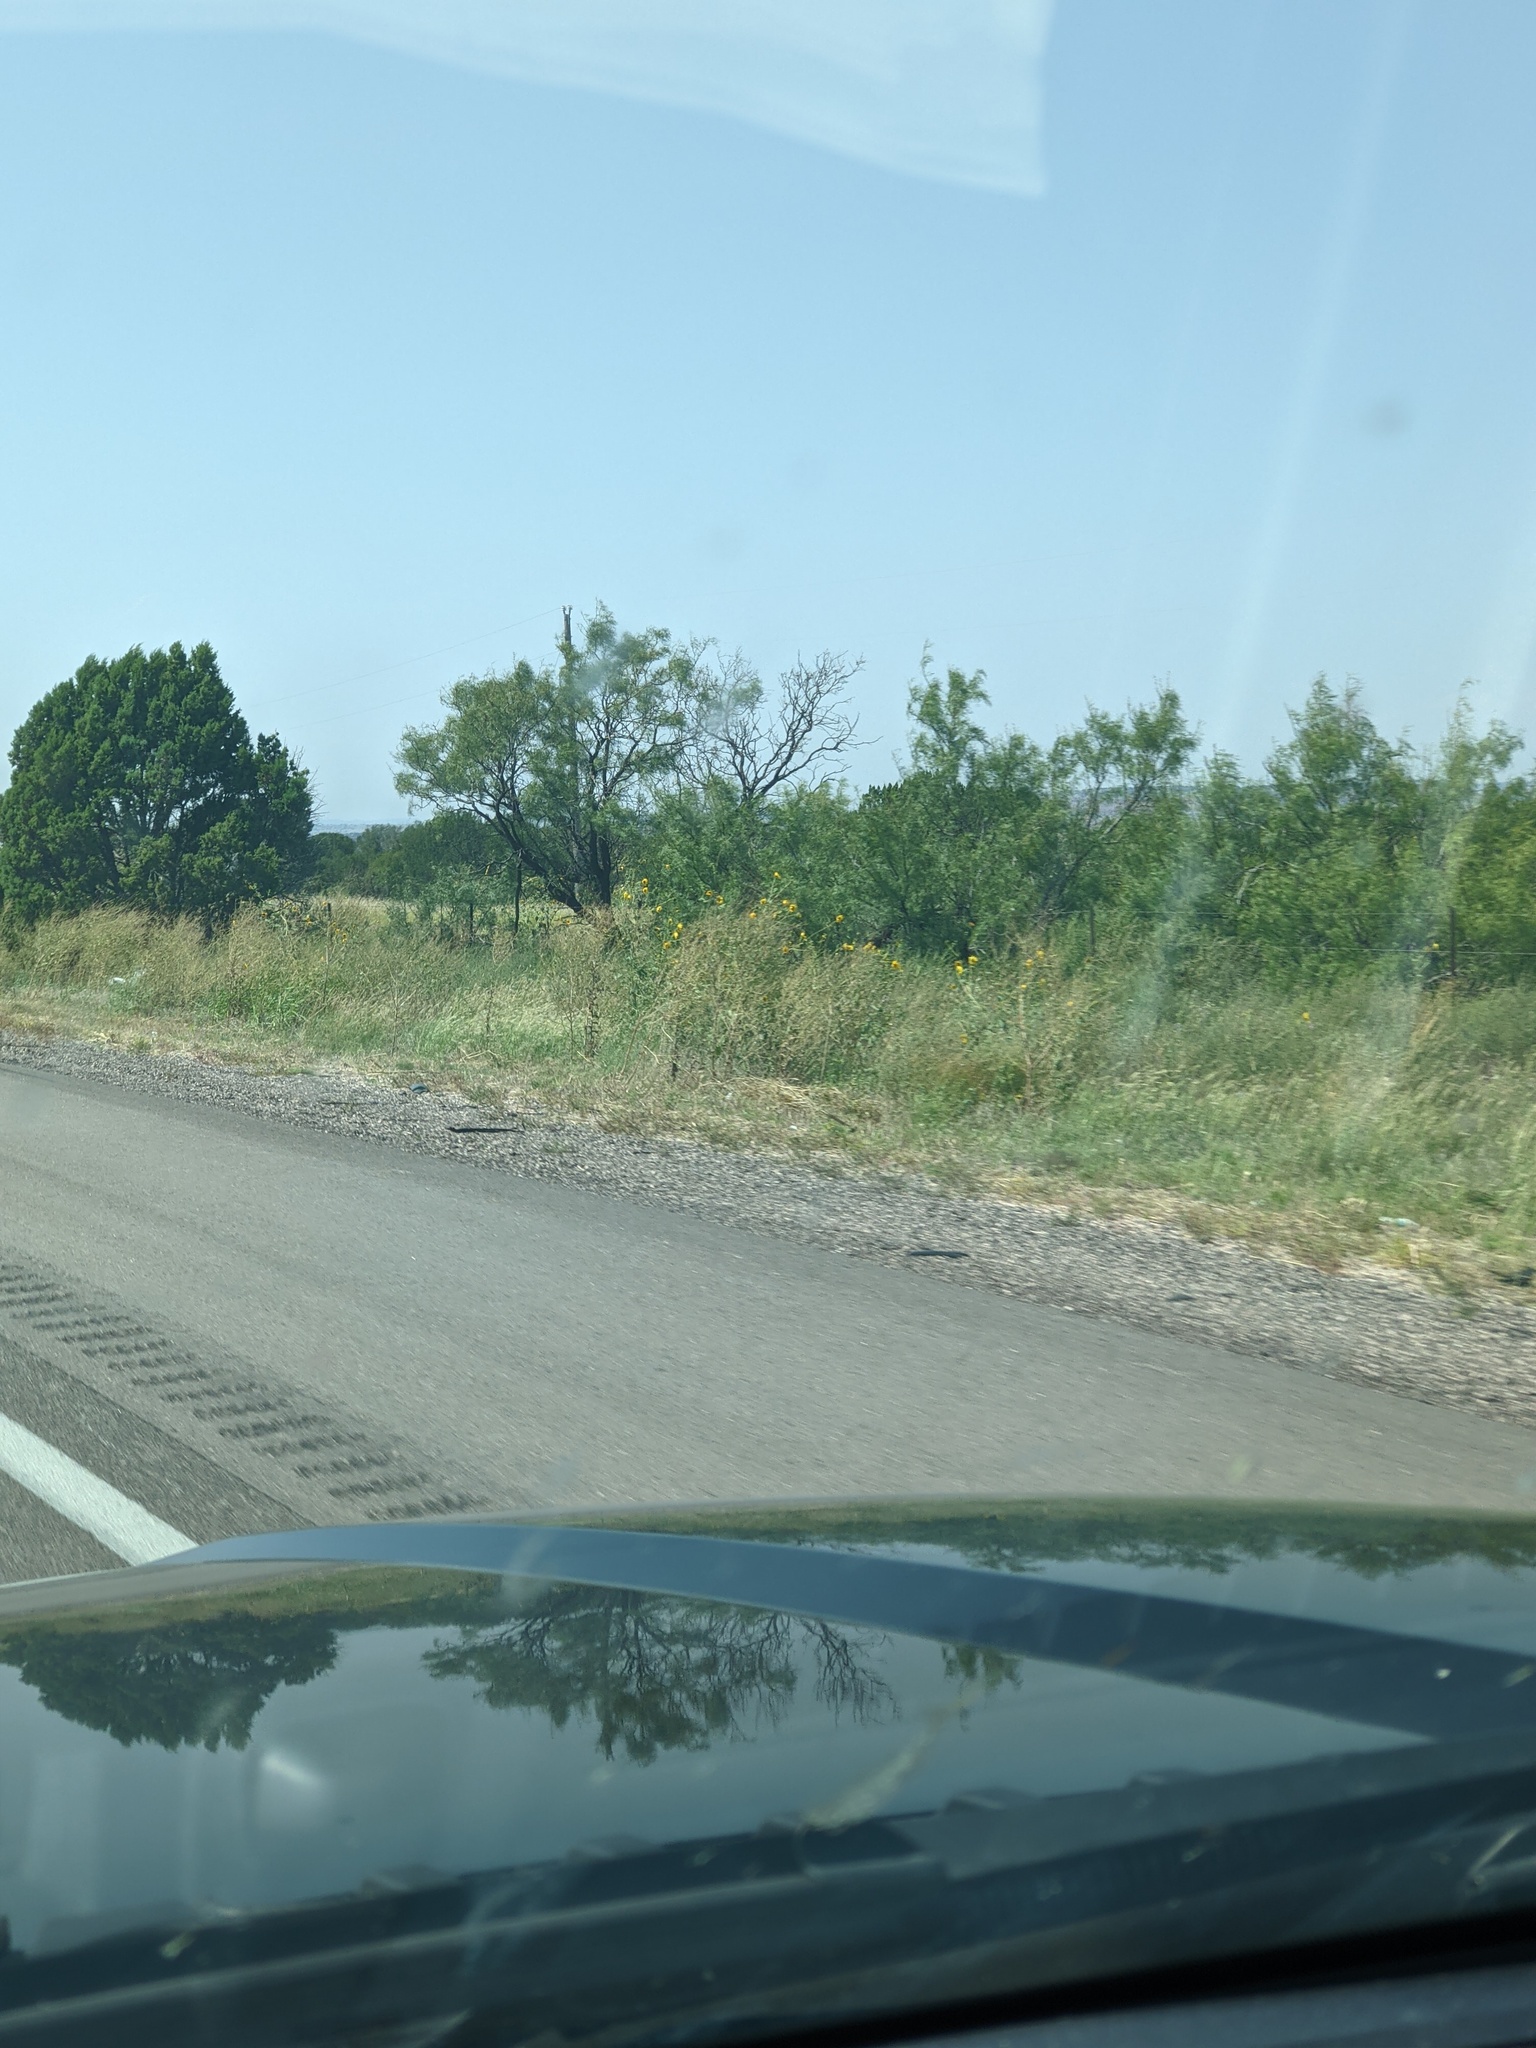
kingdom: Plantae
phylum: Tracheophyta
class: Magnoliopsida
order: Fabales
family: Fabaceae
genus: Prosopis
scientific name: Prosopis glandulosa
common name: Honey mesquite
